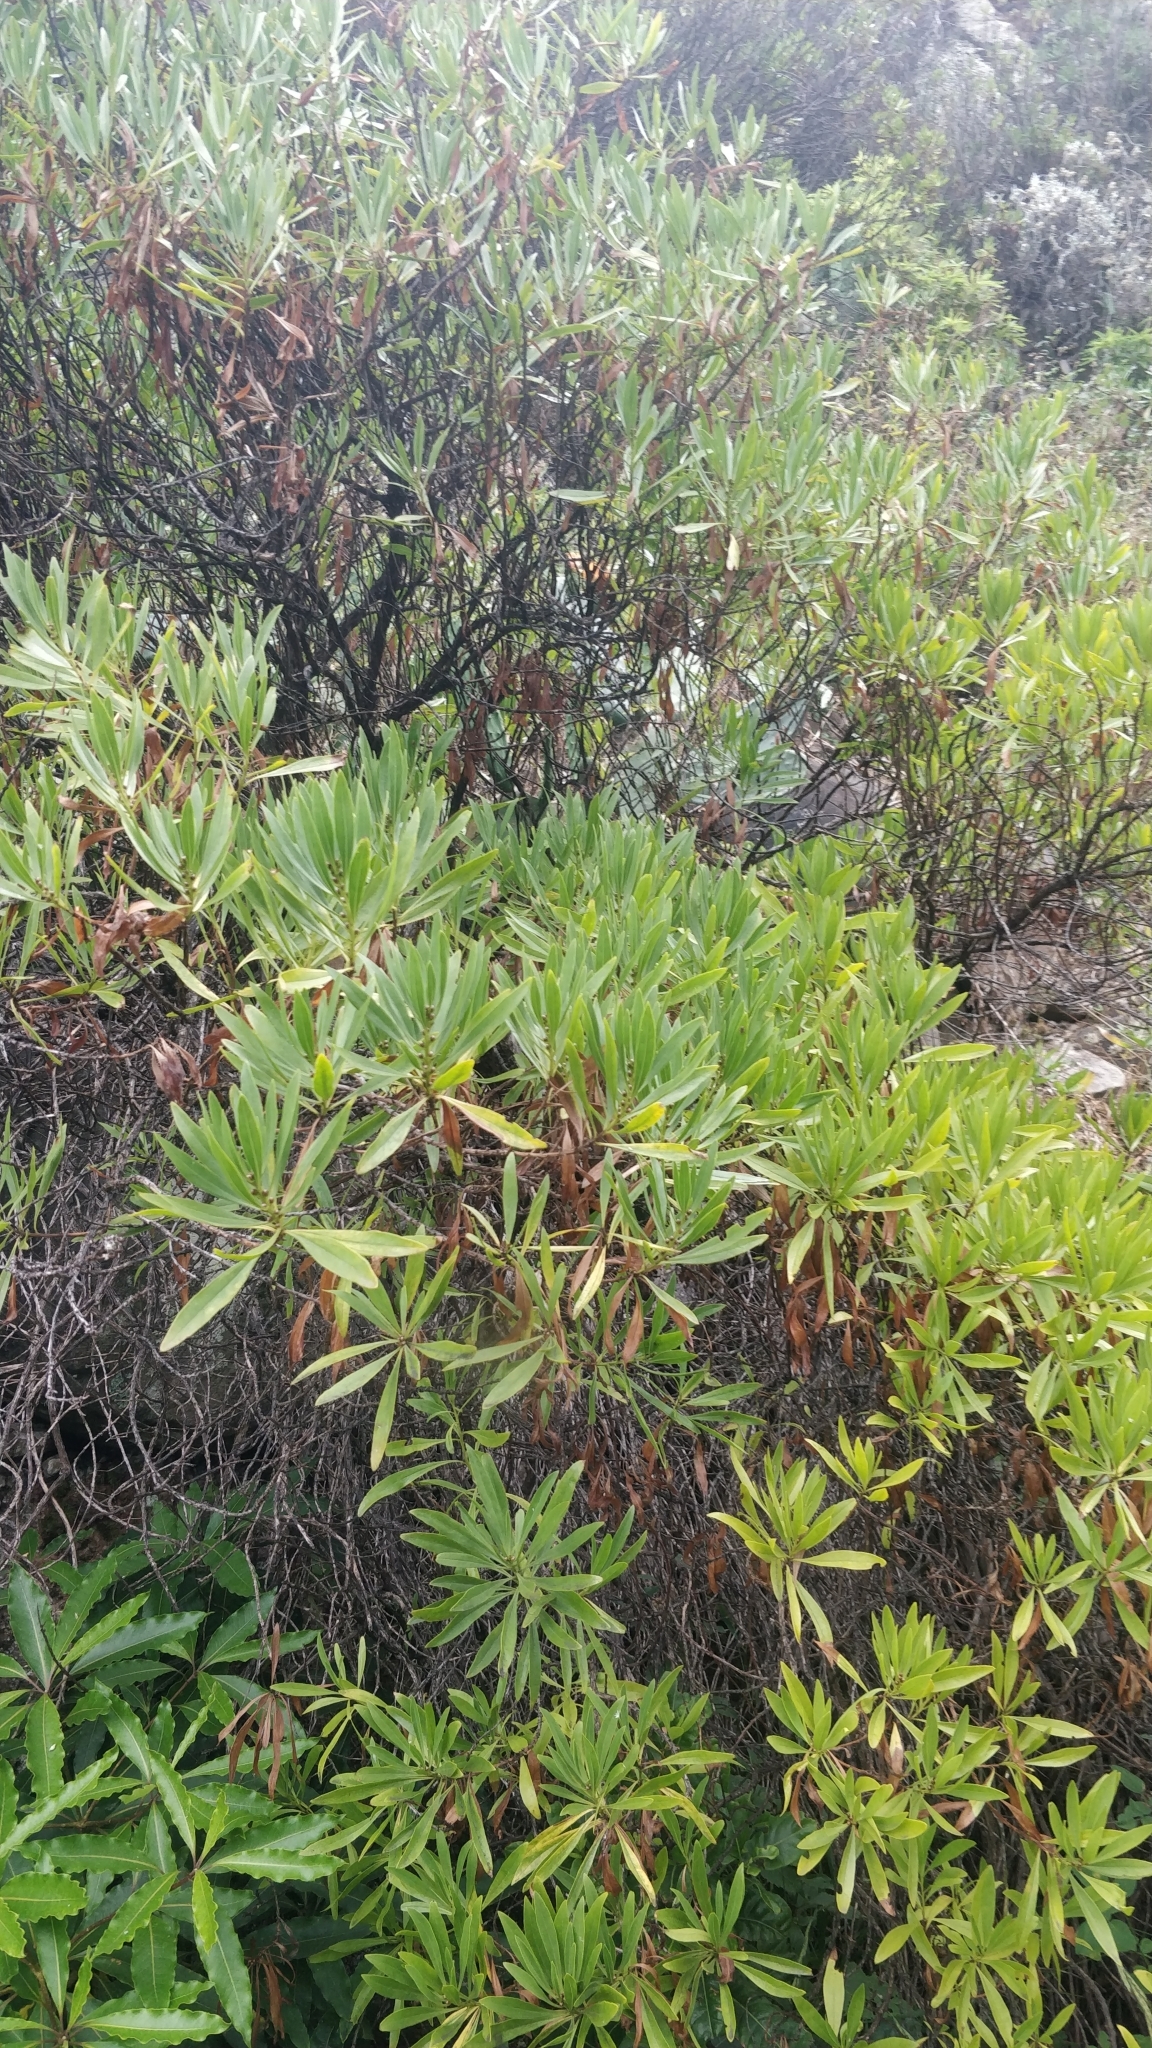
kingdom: Plantae
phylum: Tracheophyta
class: Magnoliopsida
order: Lamiales
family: Plantaginaceae
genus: Globularia
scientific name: Globularia salicina
